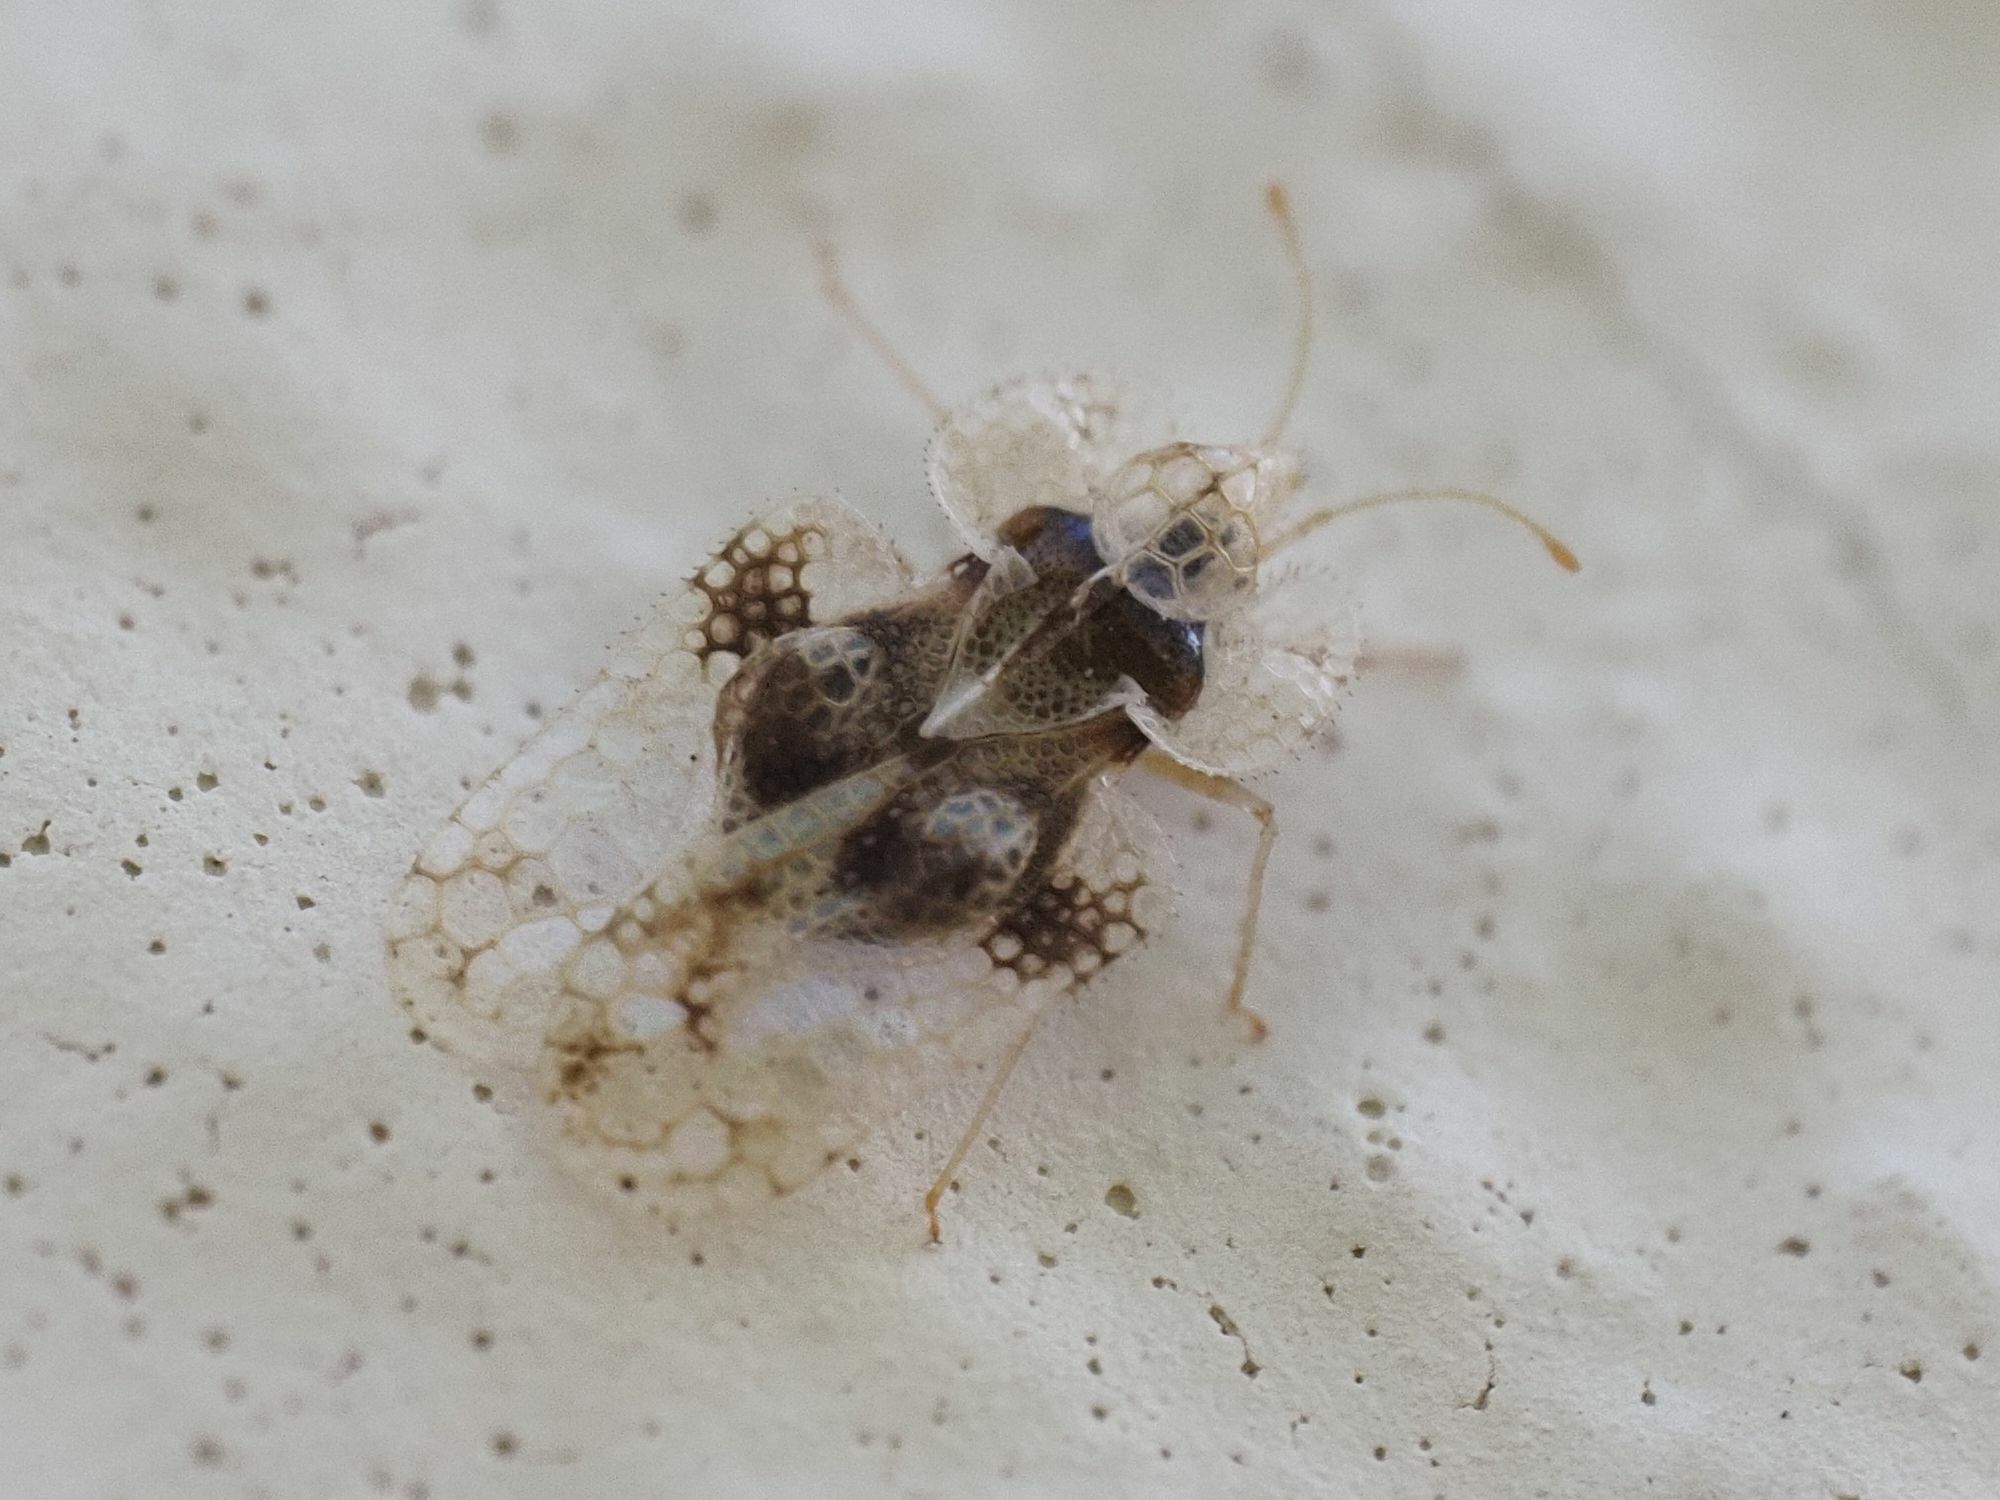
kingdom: Animalia
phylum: Arthropoda
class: Insecta
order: Hemiptera
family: Tingidae
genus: Corythucha
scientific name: Corythucha arcuata
